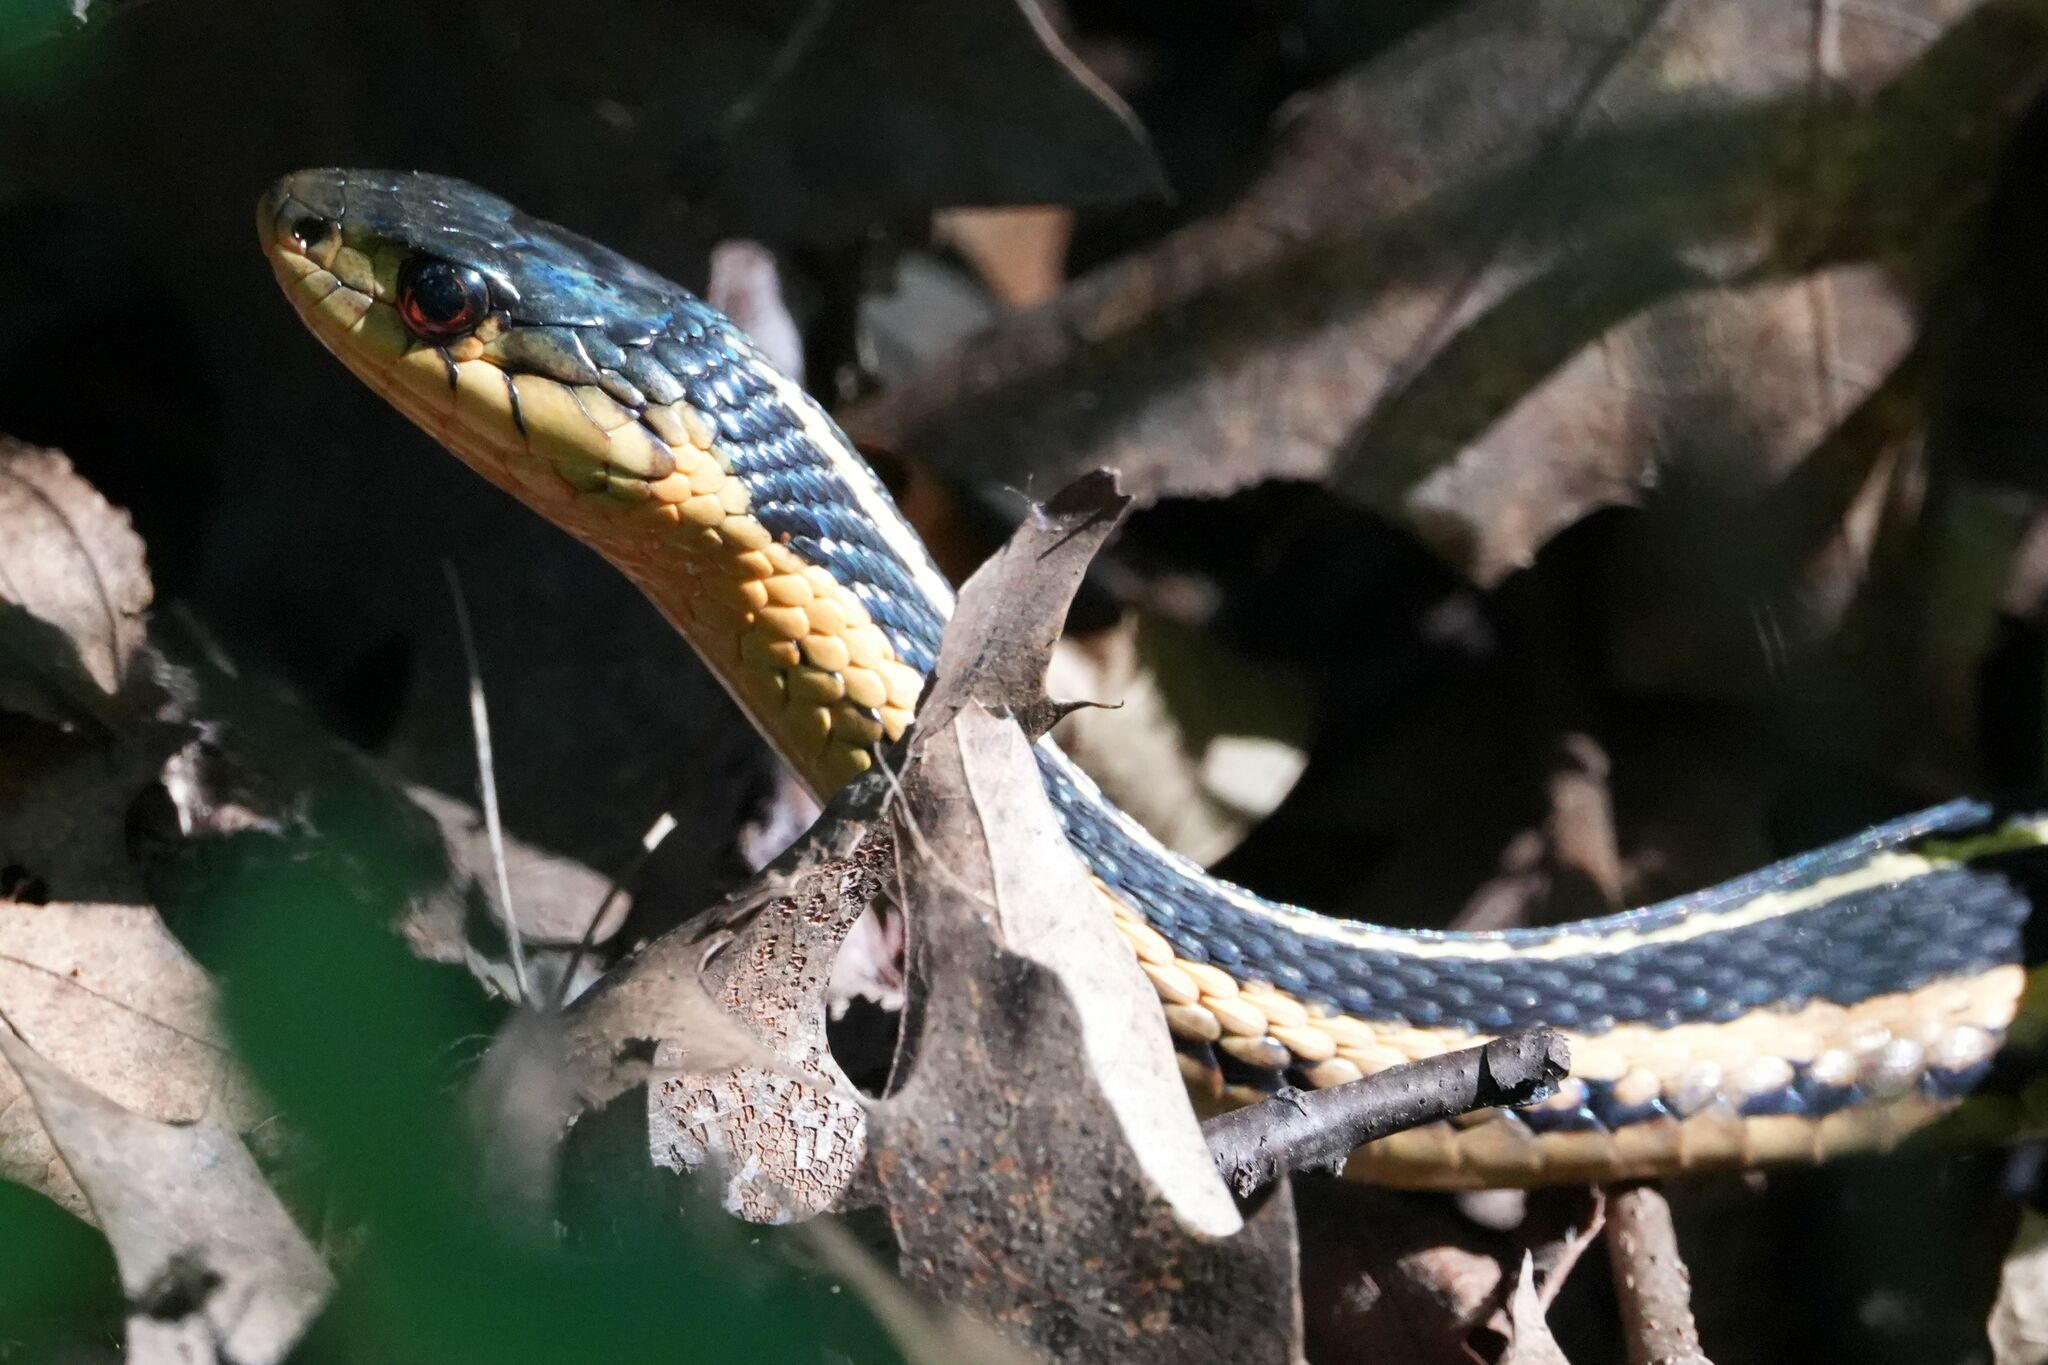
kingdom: Animalia
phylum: Chordata
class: Squamata
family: Colubridae
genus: Thamnophis
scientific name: Thamnophis sirtalis
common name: Common garter snake
